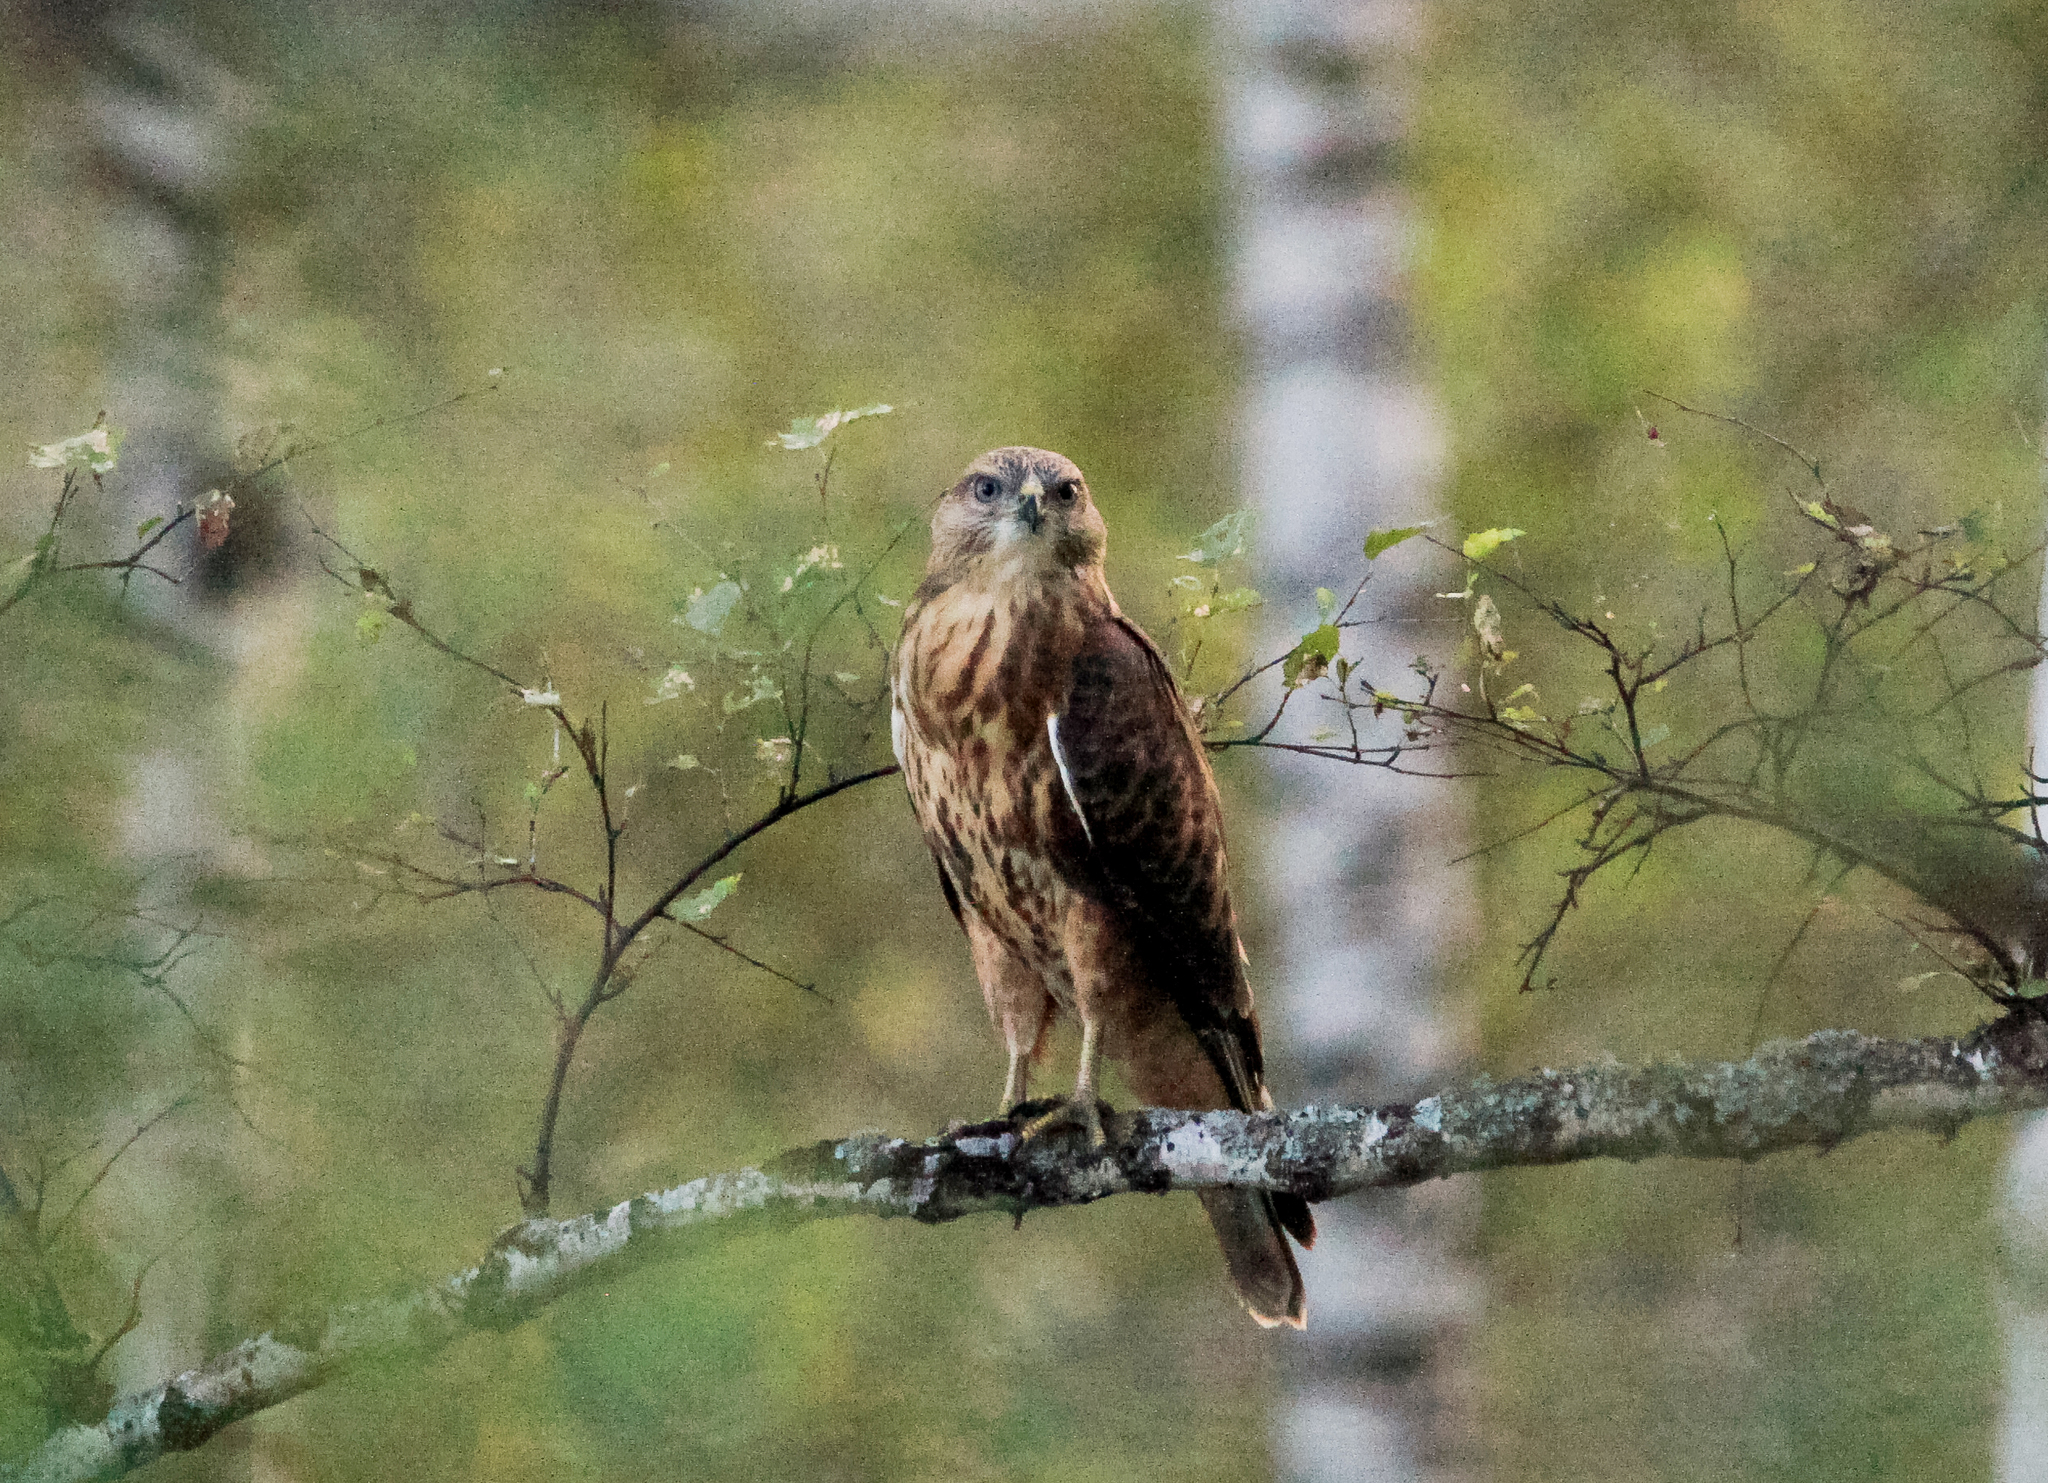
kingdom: Animalia
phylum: Chordata
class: Aves
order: Accipitriformes
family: Accipitridae
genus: Buteo
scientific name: Buteo buteo
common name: Common buzzard
